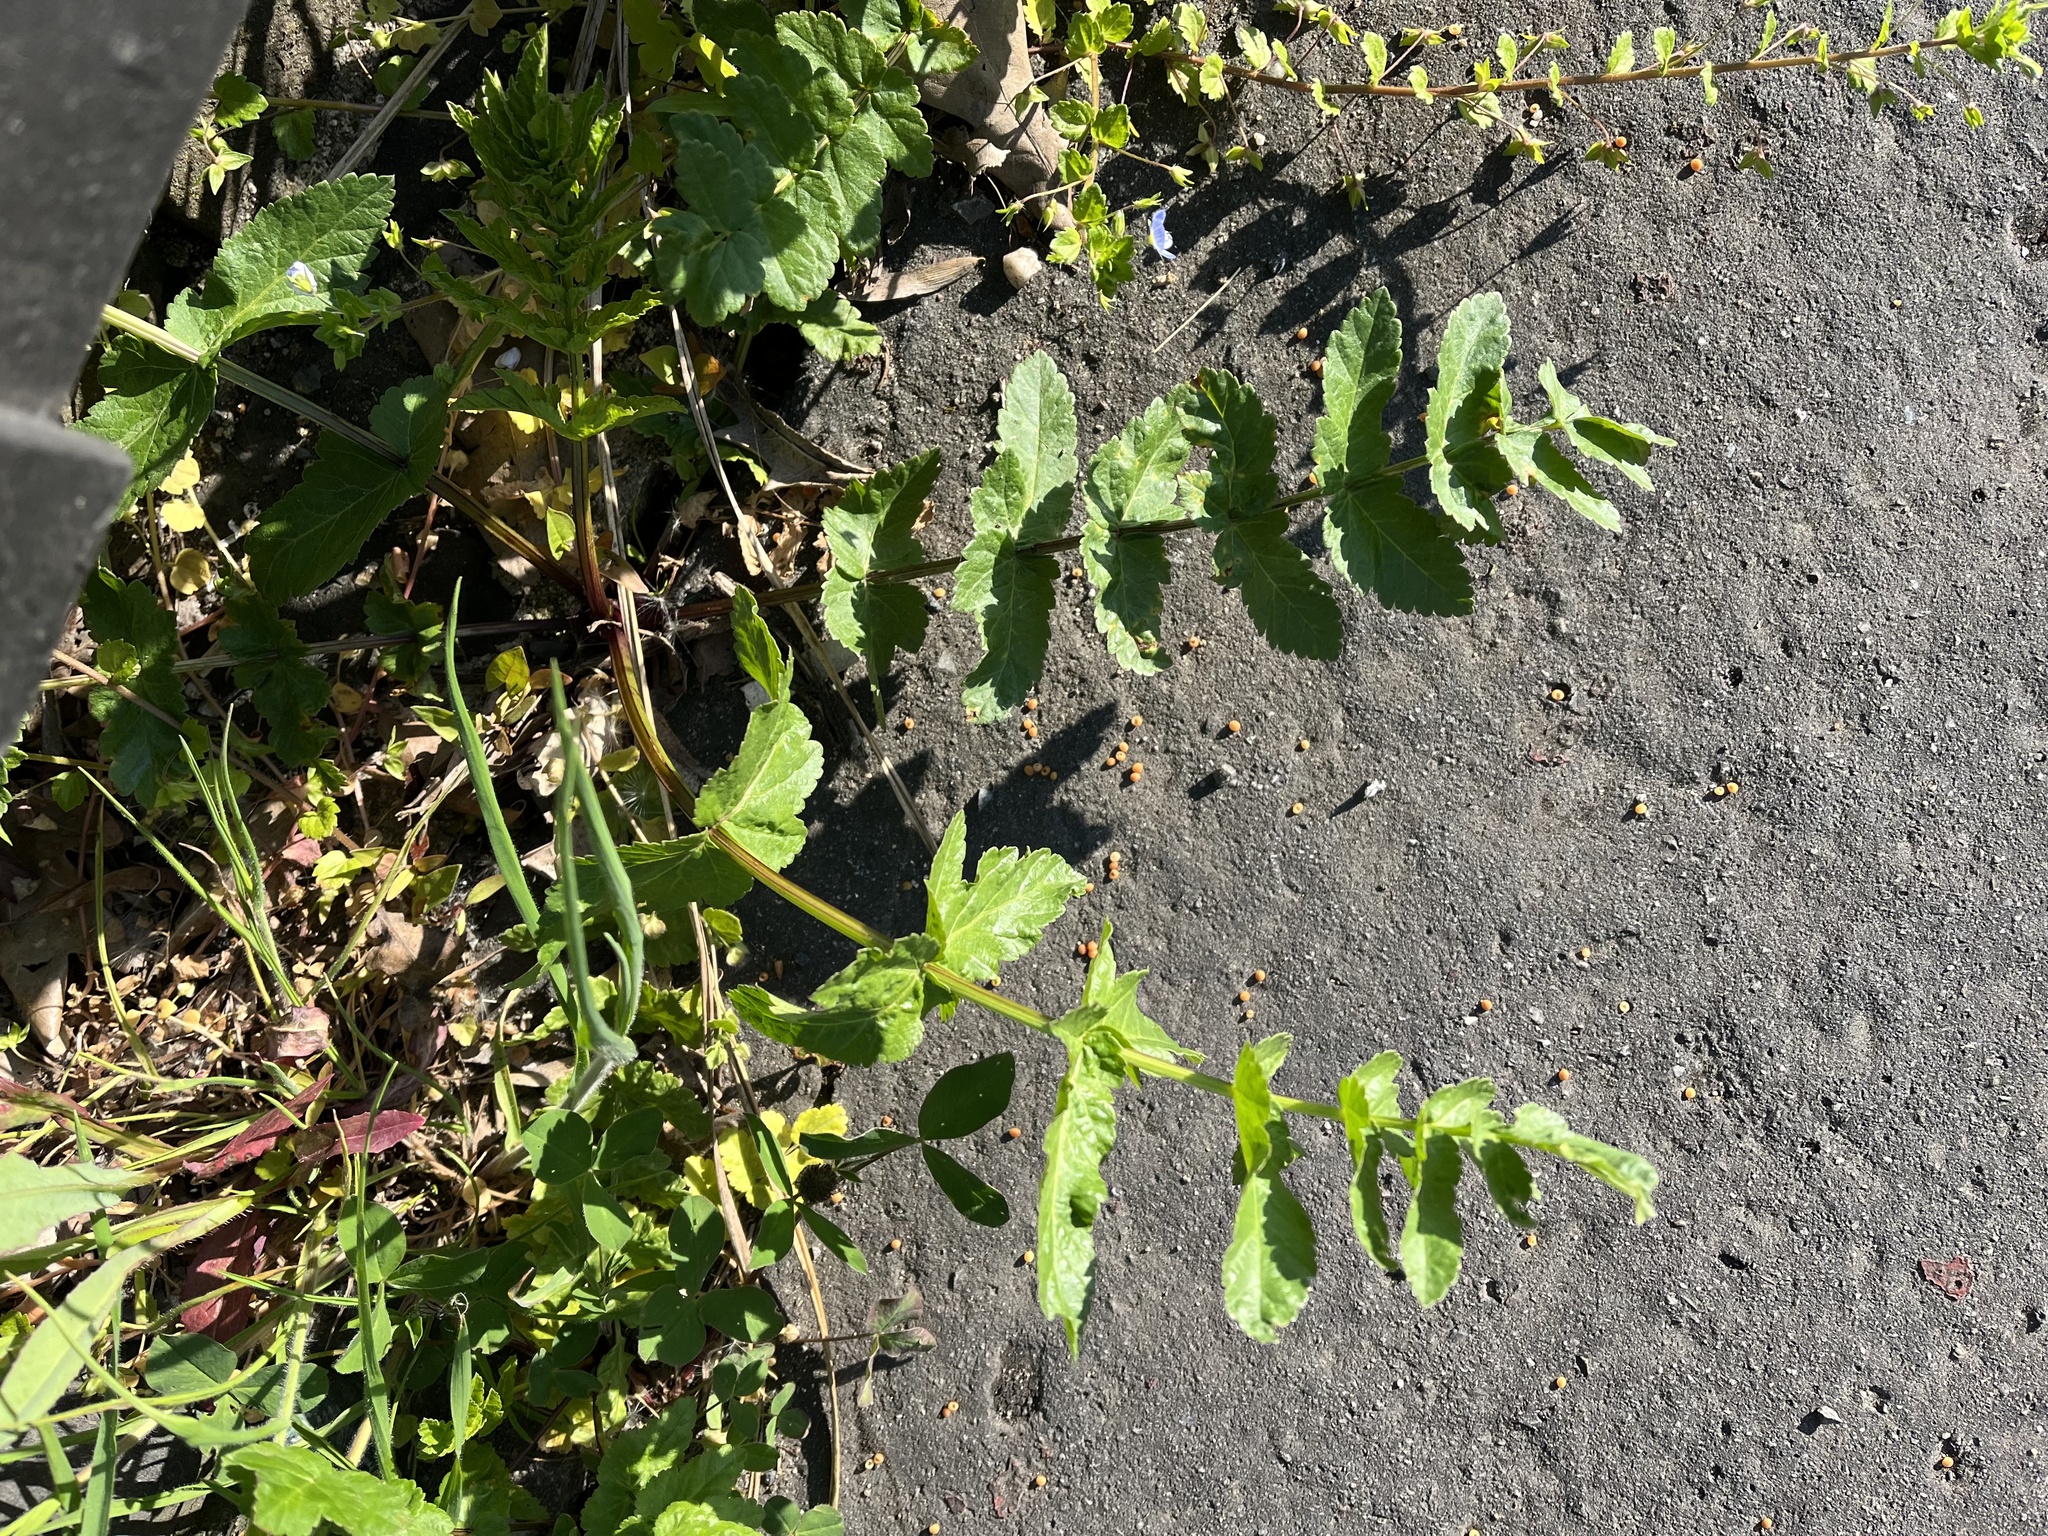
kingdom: Plantae
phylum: Tracheophyta
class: Magnoliopsida
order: Apiales
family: Apiaceae
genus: Pastinaca
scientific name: Pastinaca sativa
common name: Wild parsnip
